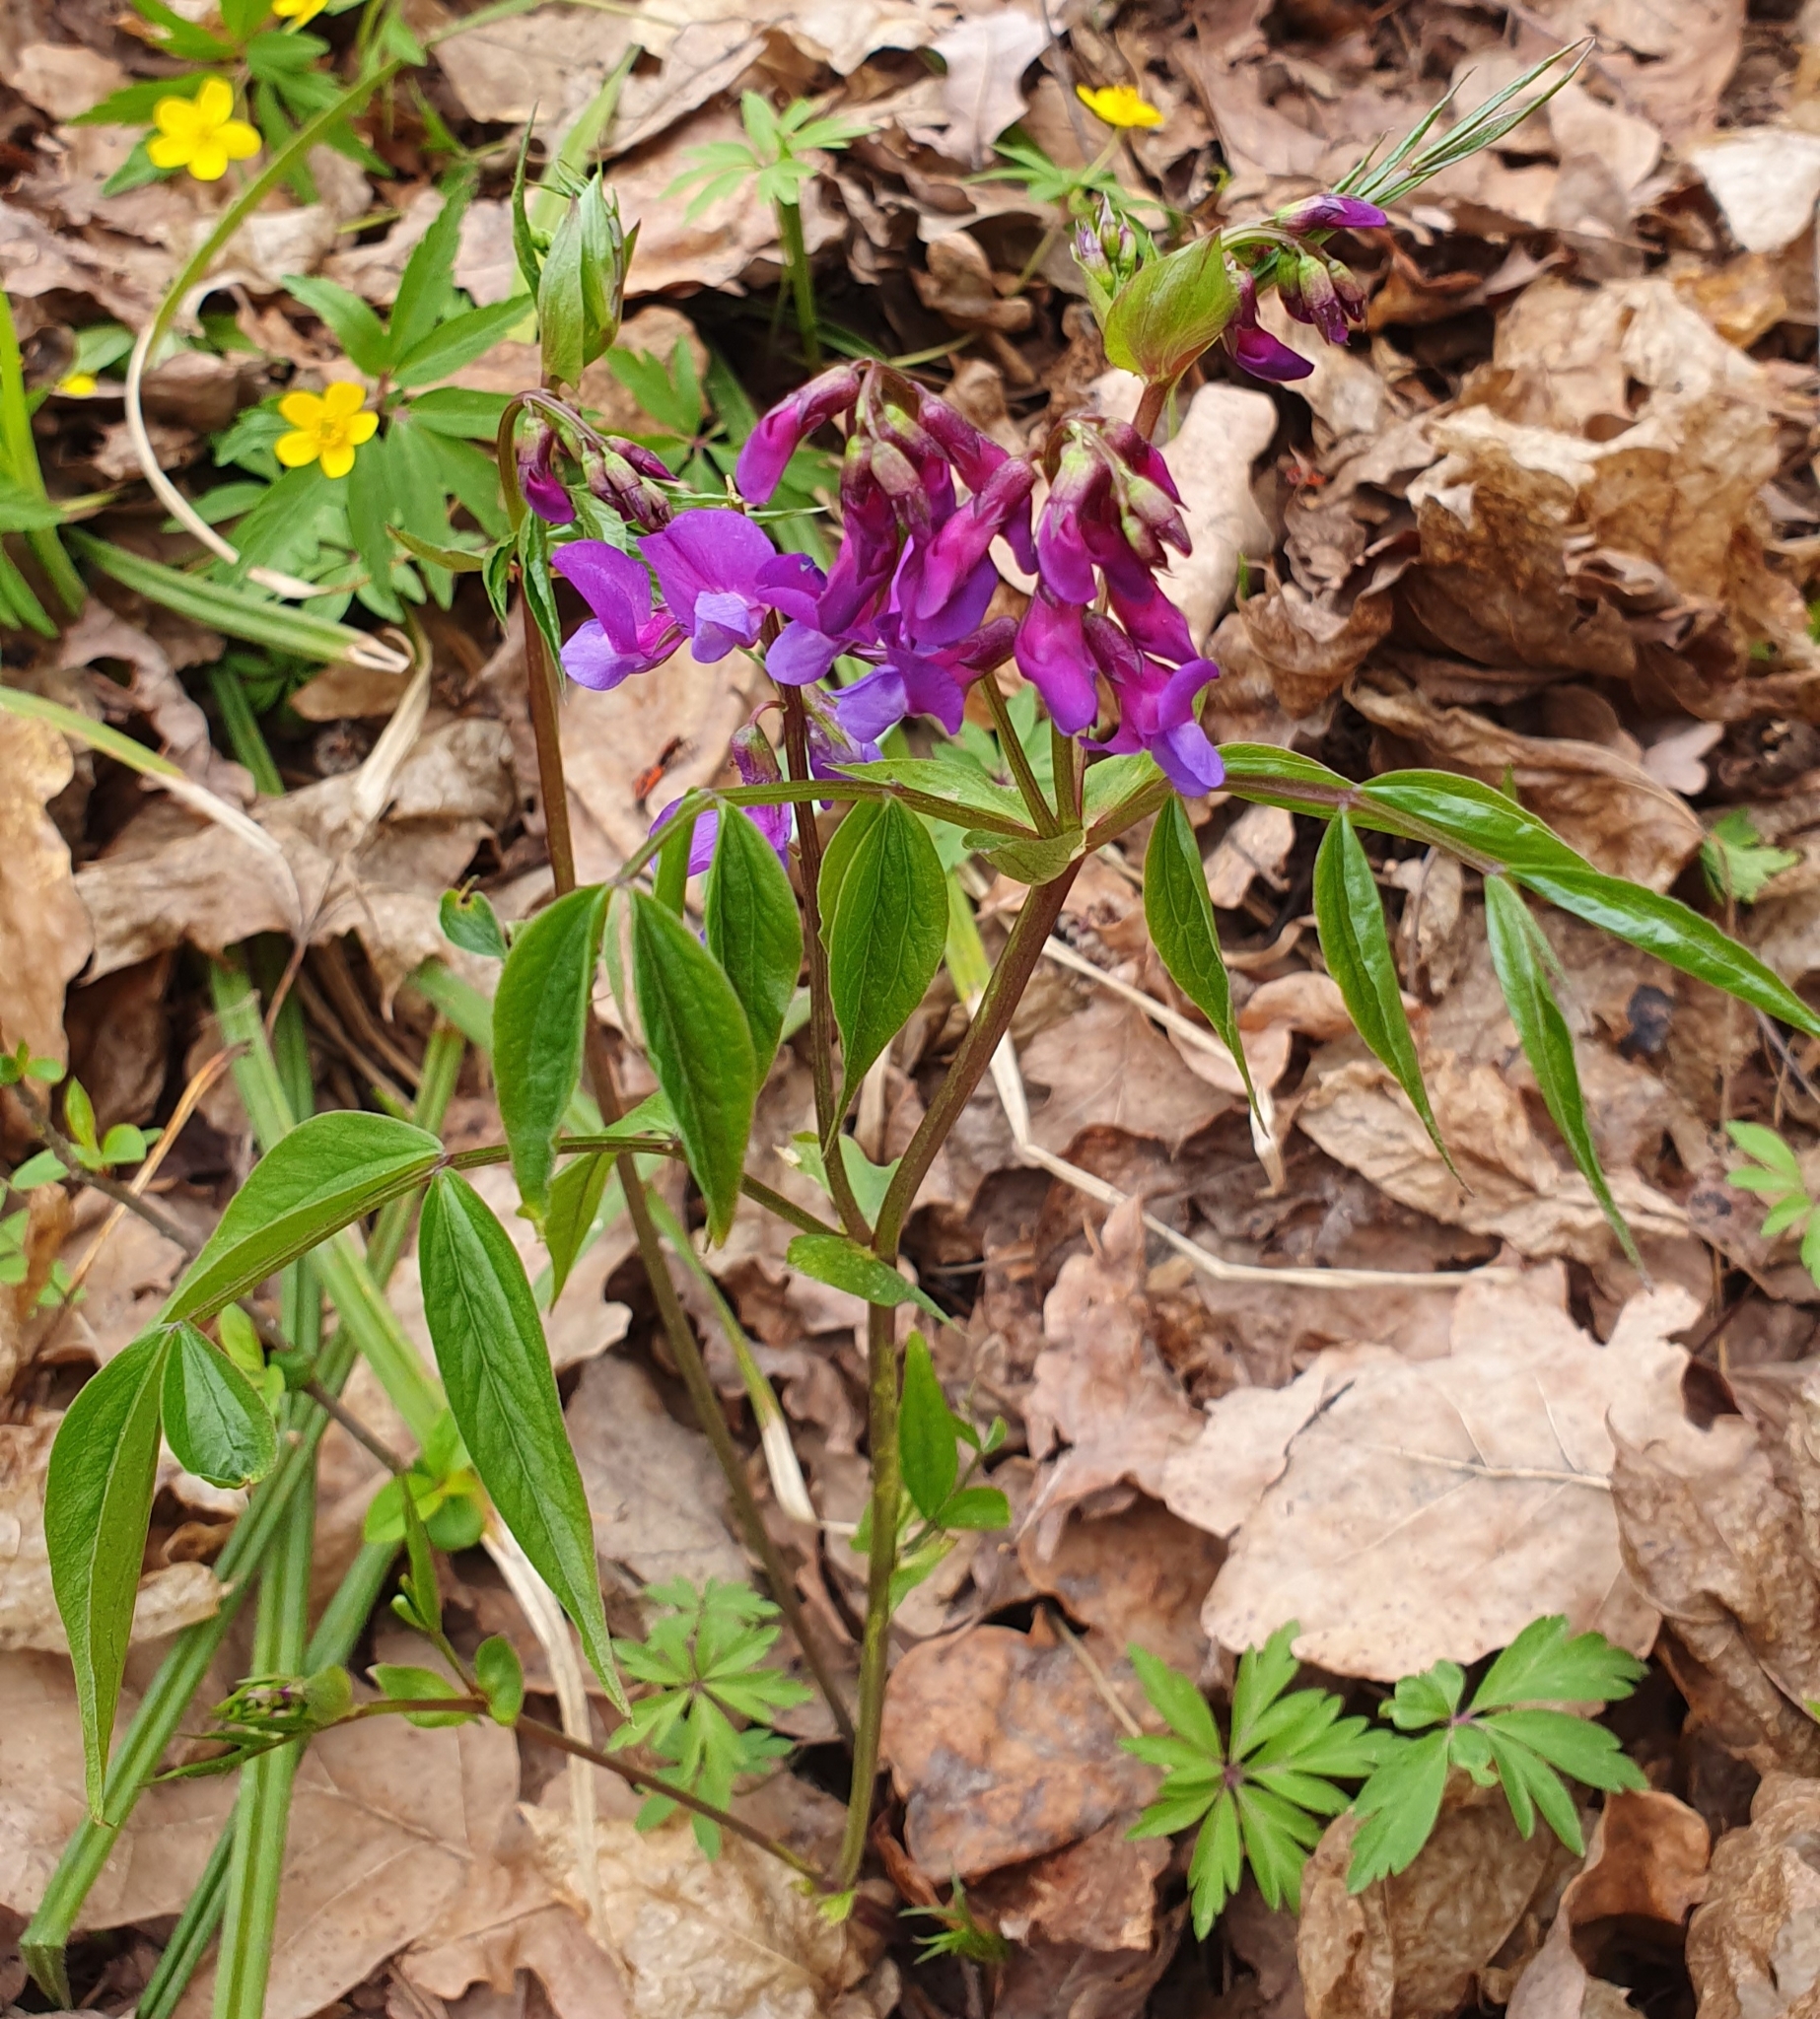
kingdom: Plantae
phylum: Tracheophyta
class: Magnoliopsida
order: Fabales
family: Fabaceae
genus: Lathyrus
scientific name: Lathyrus vernus
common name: Spring pea
